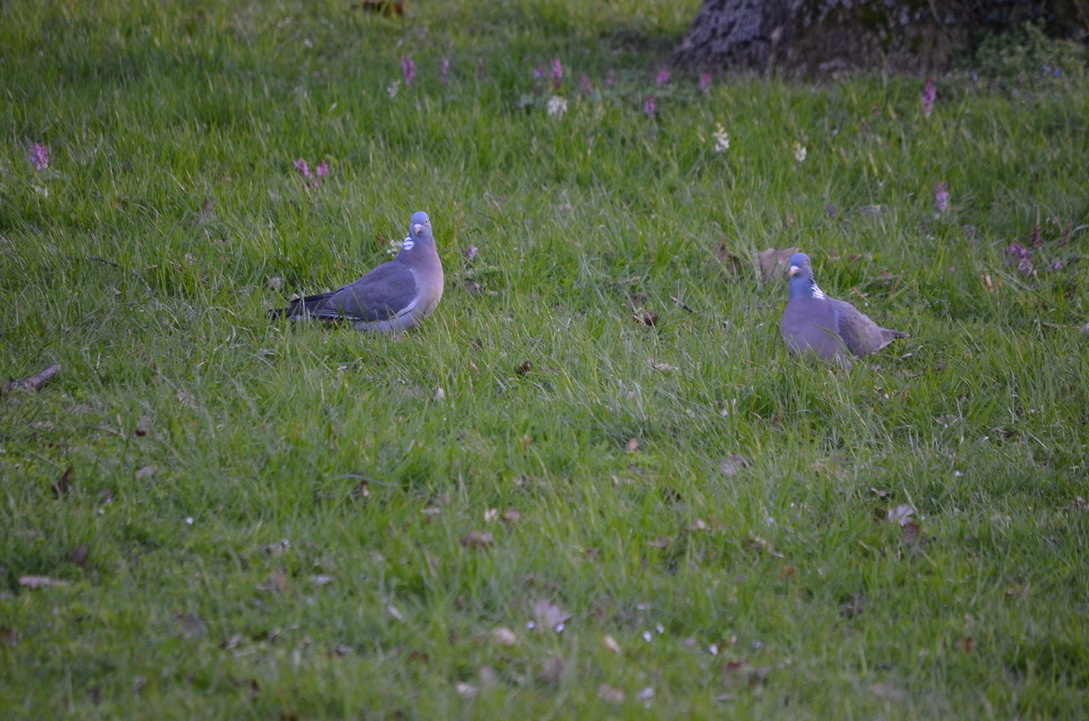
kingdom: Animalia
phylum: Chordata
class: Aves
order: Columbiformes
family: Columbidae
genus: Columba
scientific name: Columba palumbus
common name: Common wood pigeon
